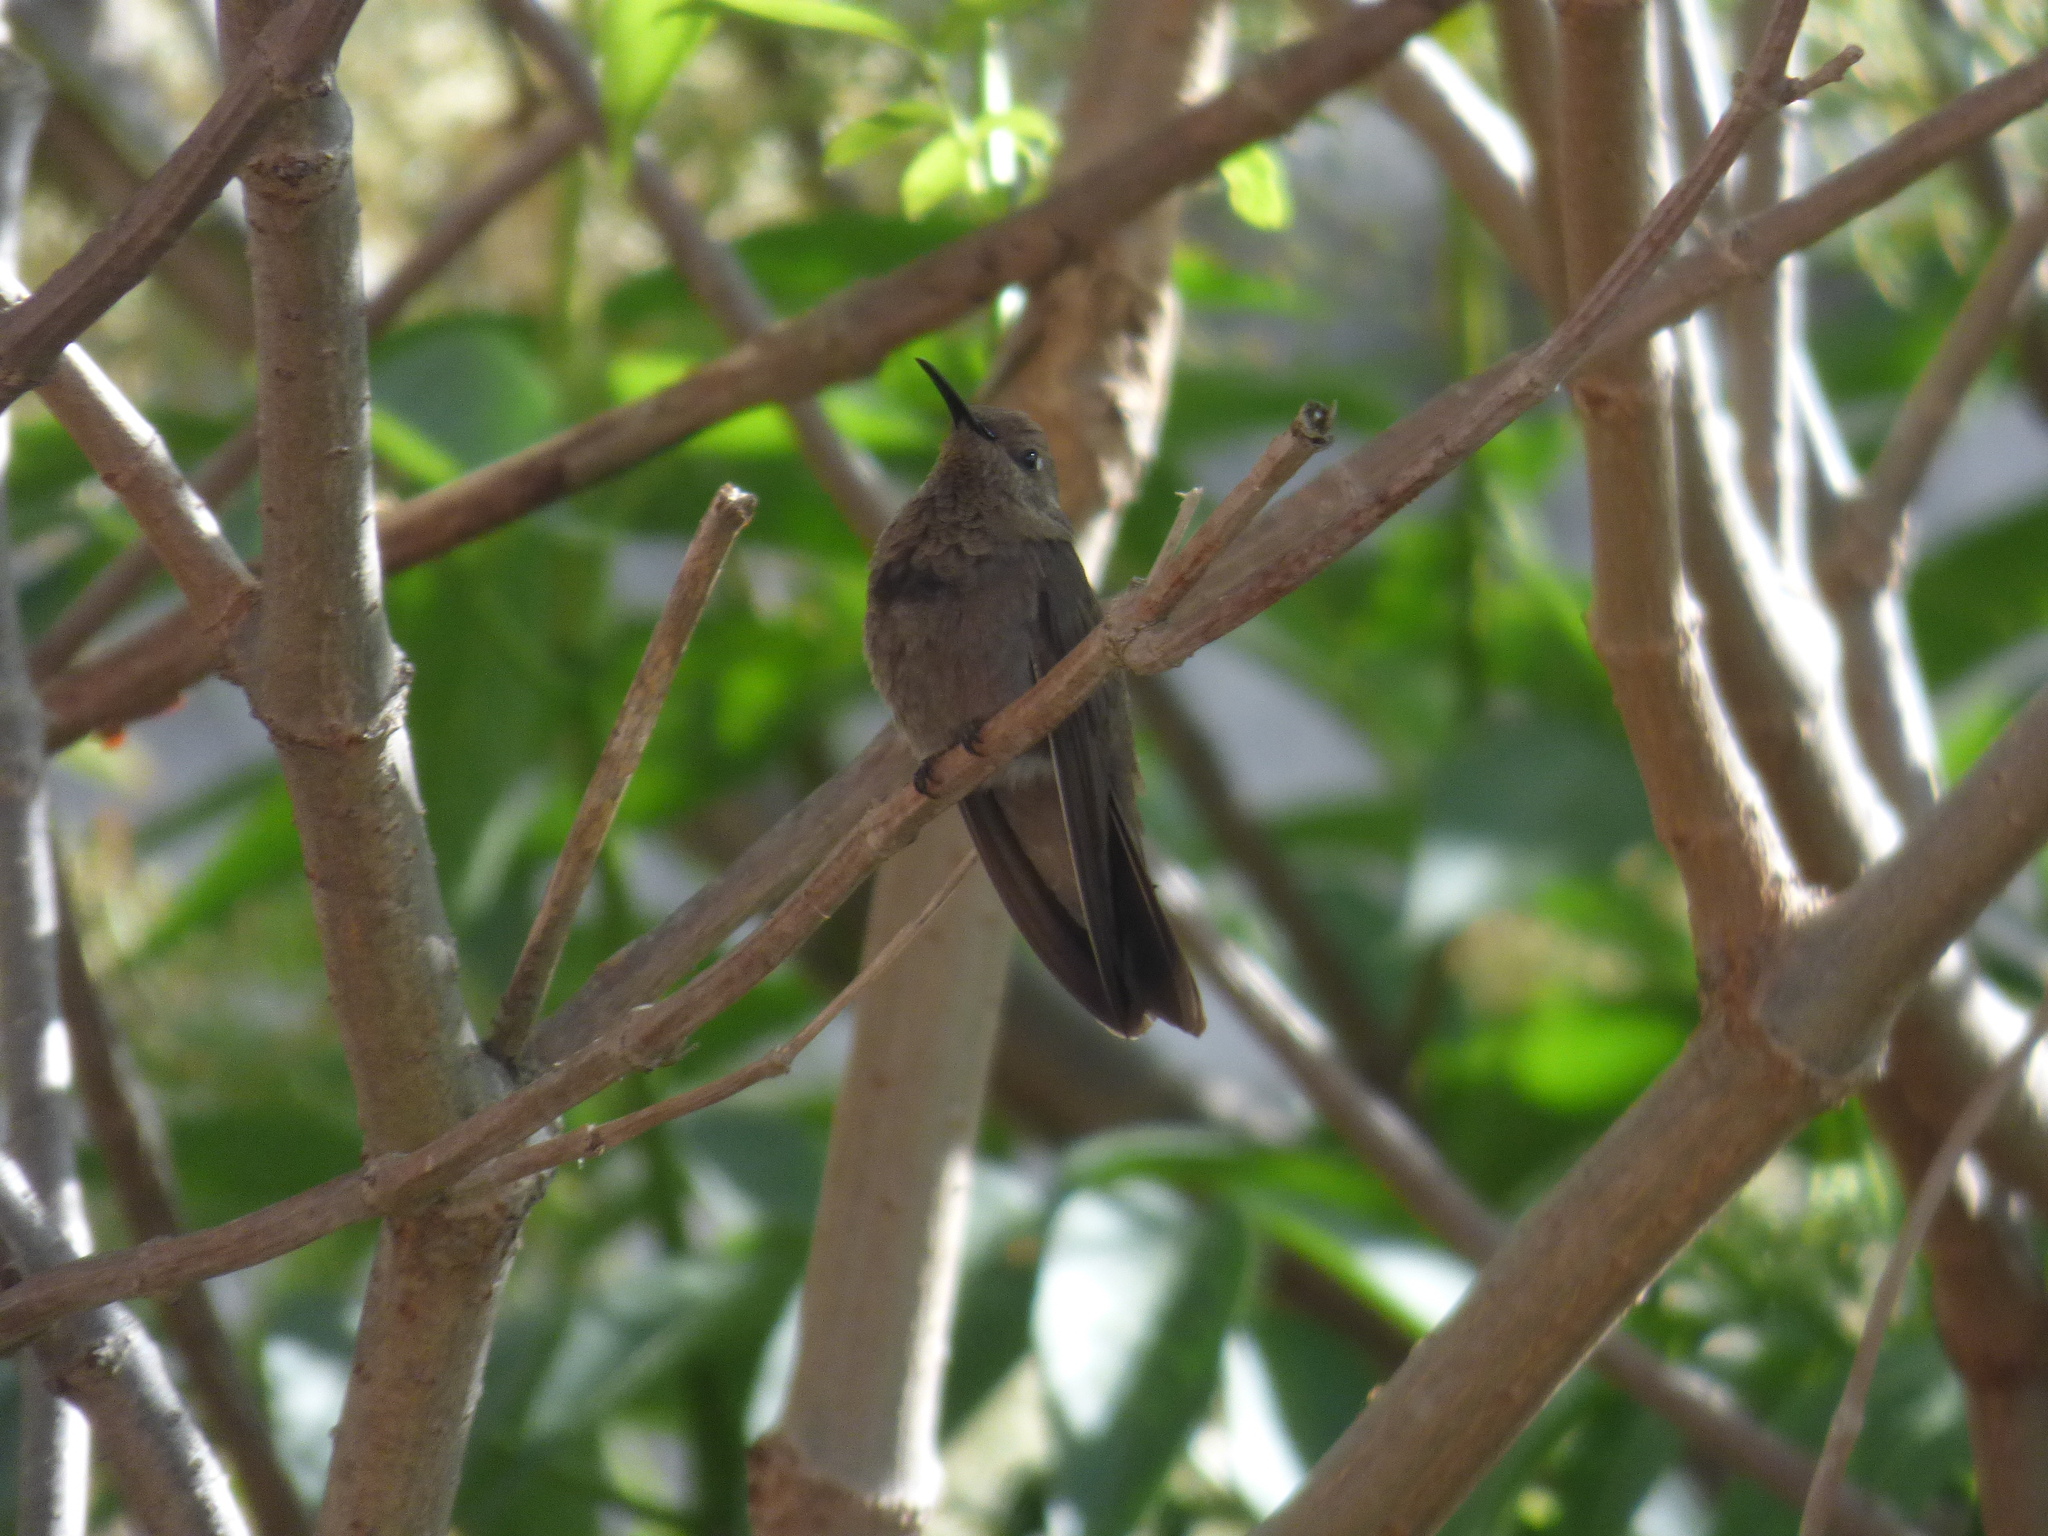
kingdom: Animalia
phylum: Chordata
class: Aves
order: Apodiformes
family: Trochilidae
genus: Colibri
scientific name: Colibri coruscans
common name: Sparkling violetear
